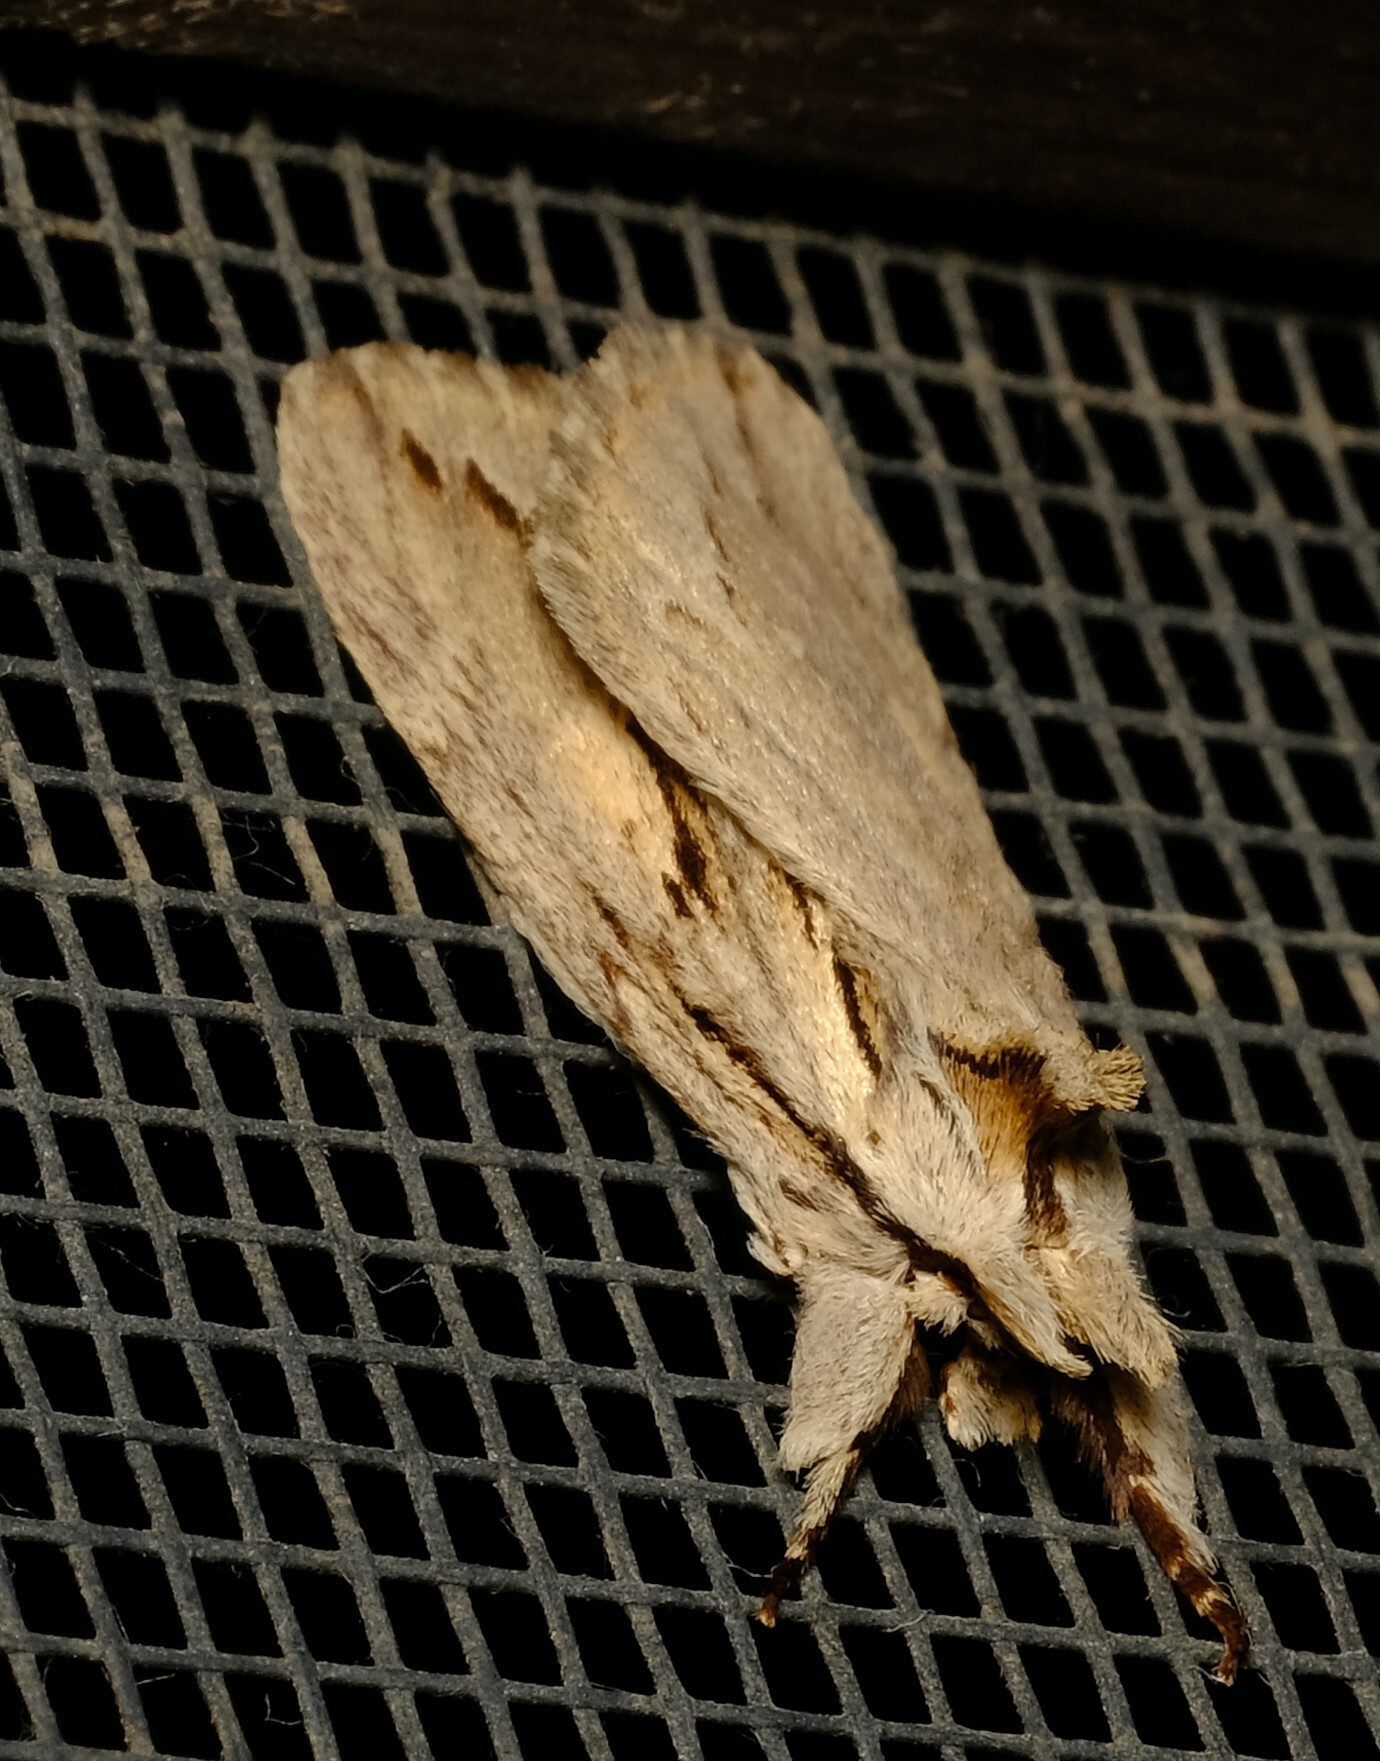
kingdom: Animalia
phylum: Arthropoda
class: Insecta
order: Lepidoptera
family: Notodontidae
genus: Ecnomodes
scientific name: Ecnomodes sagittaria
